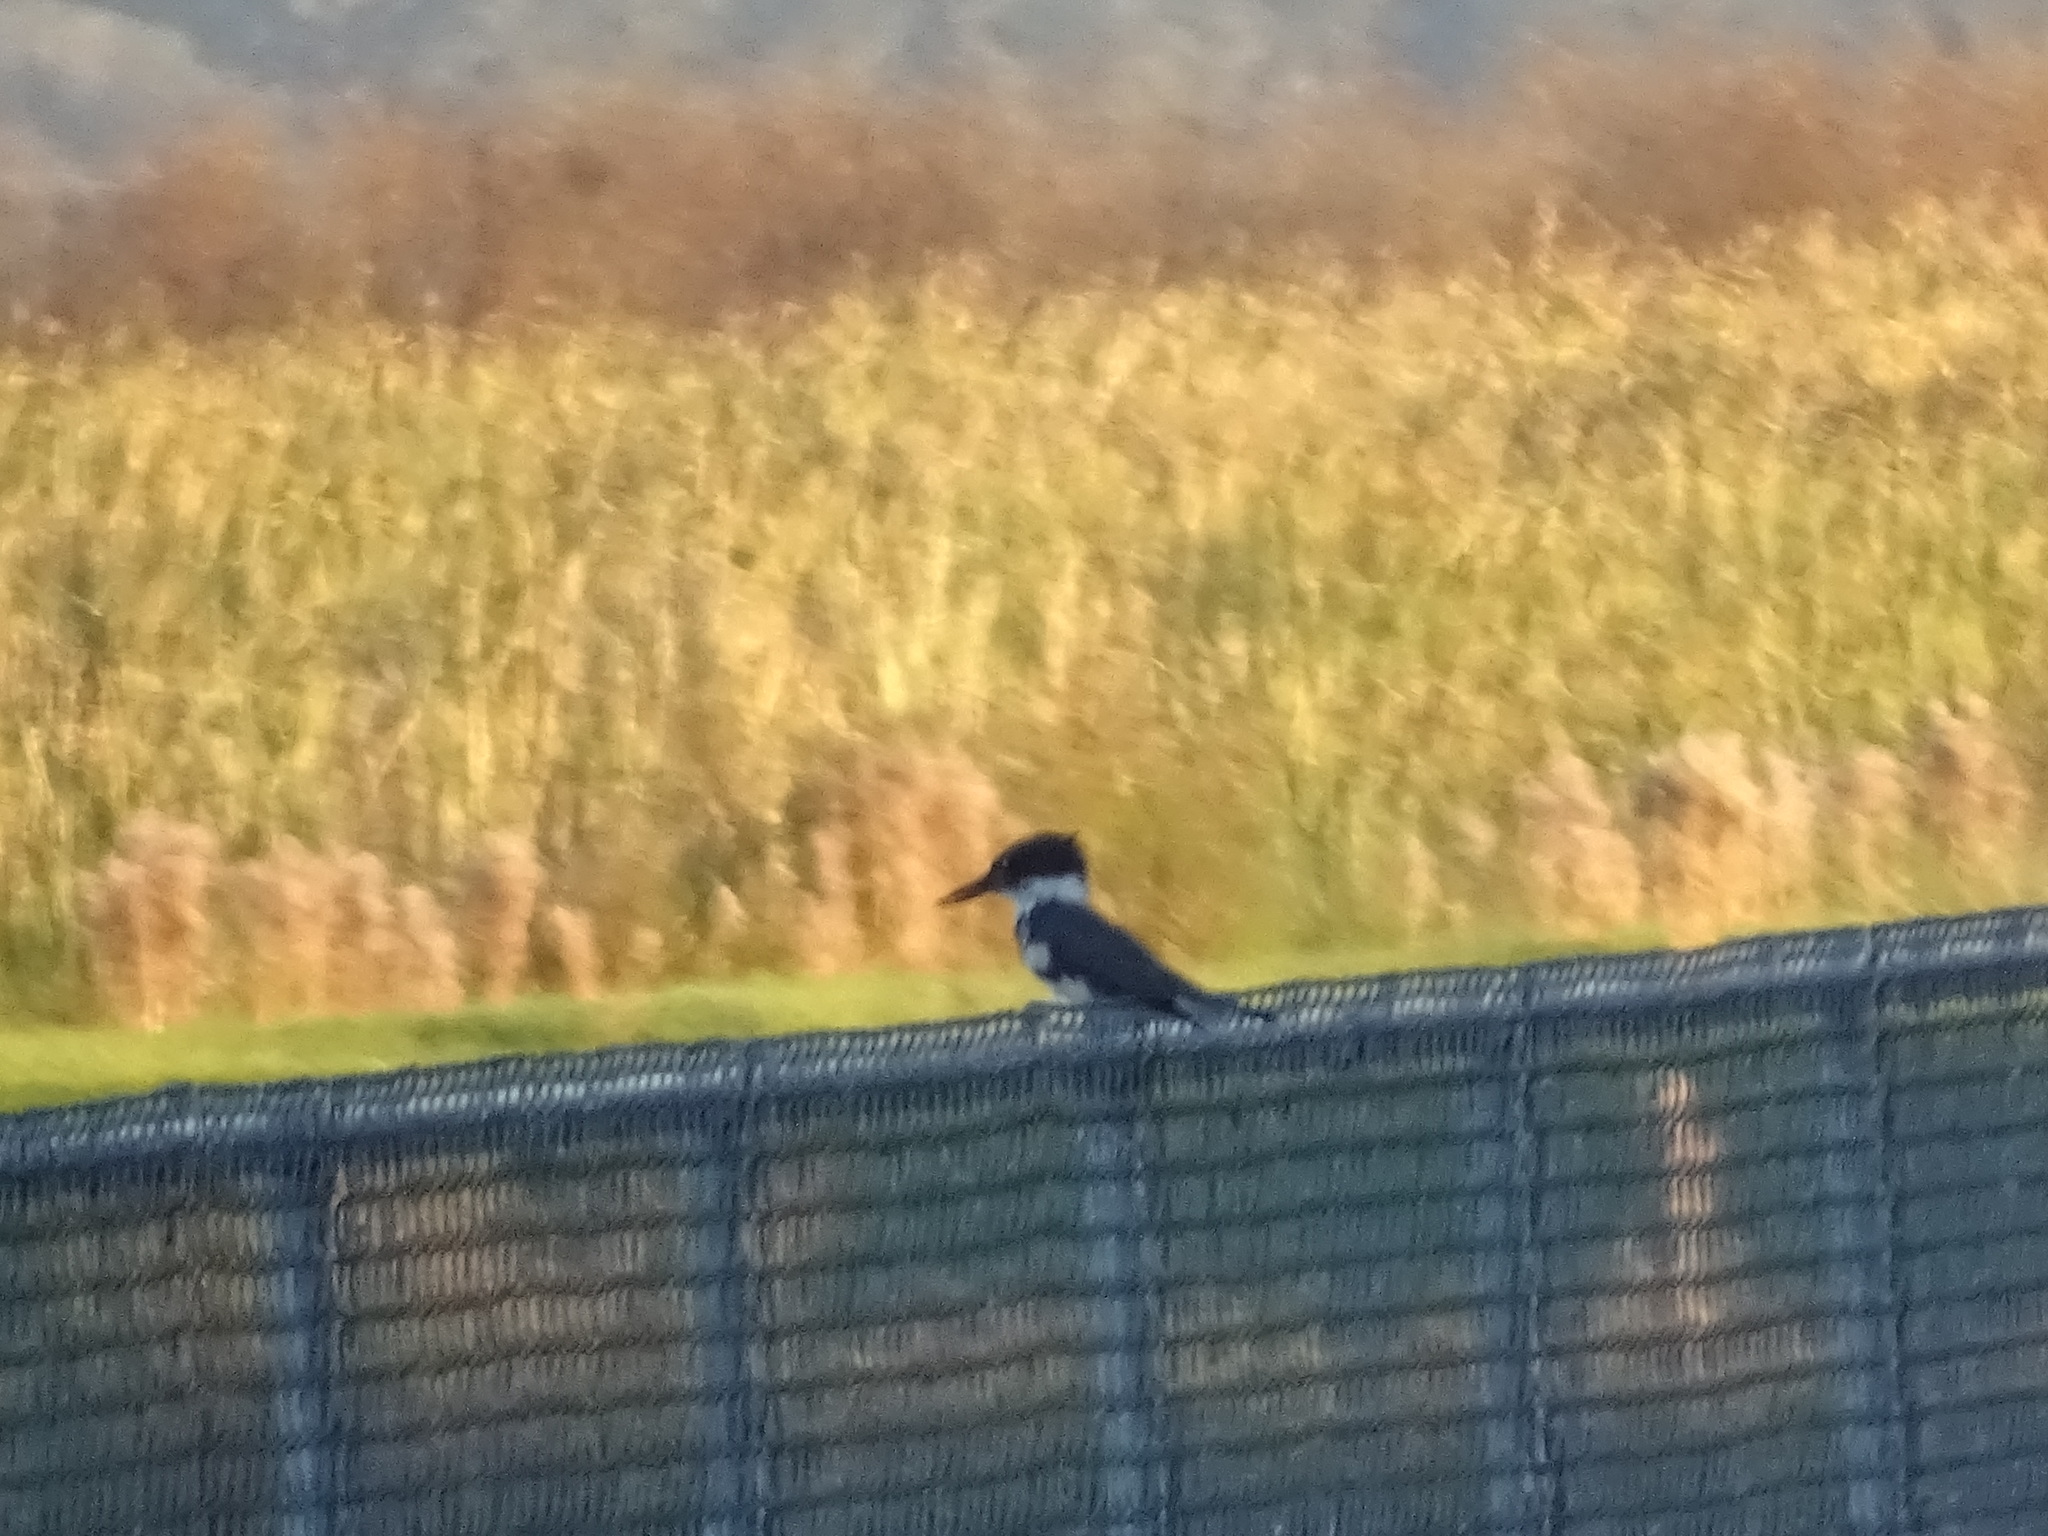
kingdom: Animalia
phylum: Chordata
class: Aves
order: Coraciiformes
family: Alcedinidae
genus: Megaceryle
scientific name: Megaceryle alcyon
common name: Belted kingfisher
